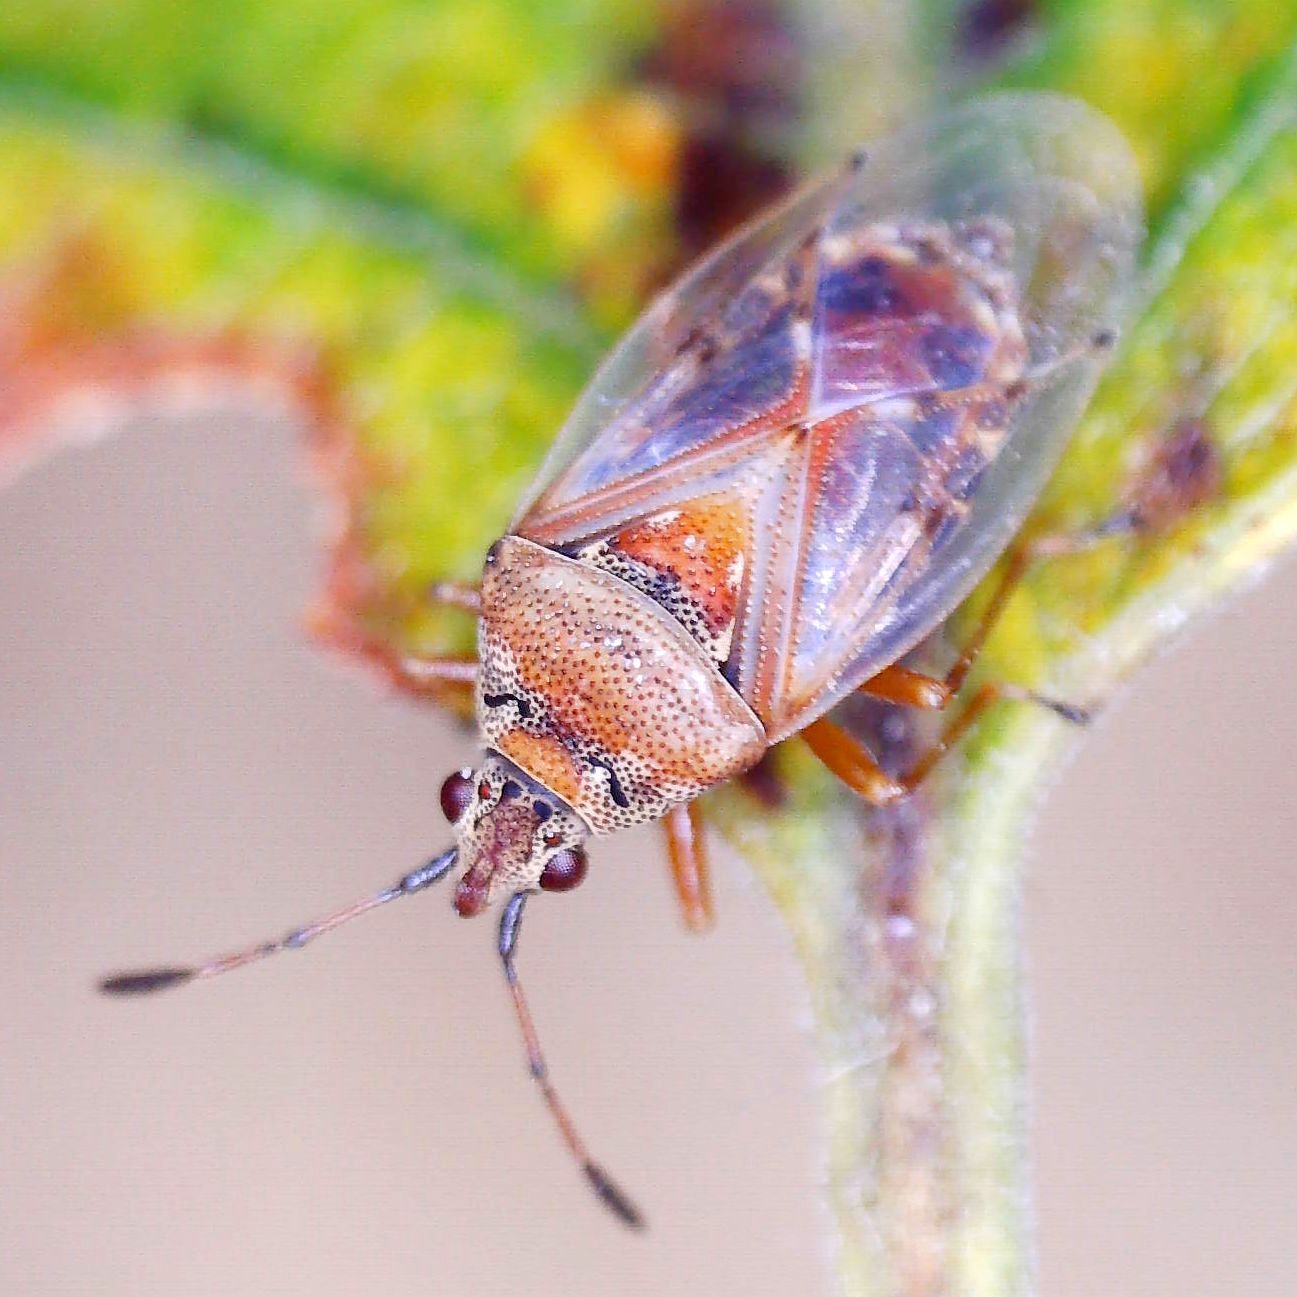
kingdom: Animalia
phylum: Arthropoda
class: Insecta
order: Hemiptera
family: Lygaeidae
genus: Kleidocerys
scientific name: Kleidocerys resedae
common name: Birch catkin bug
